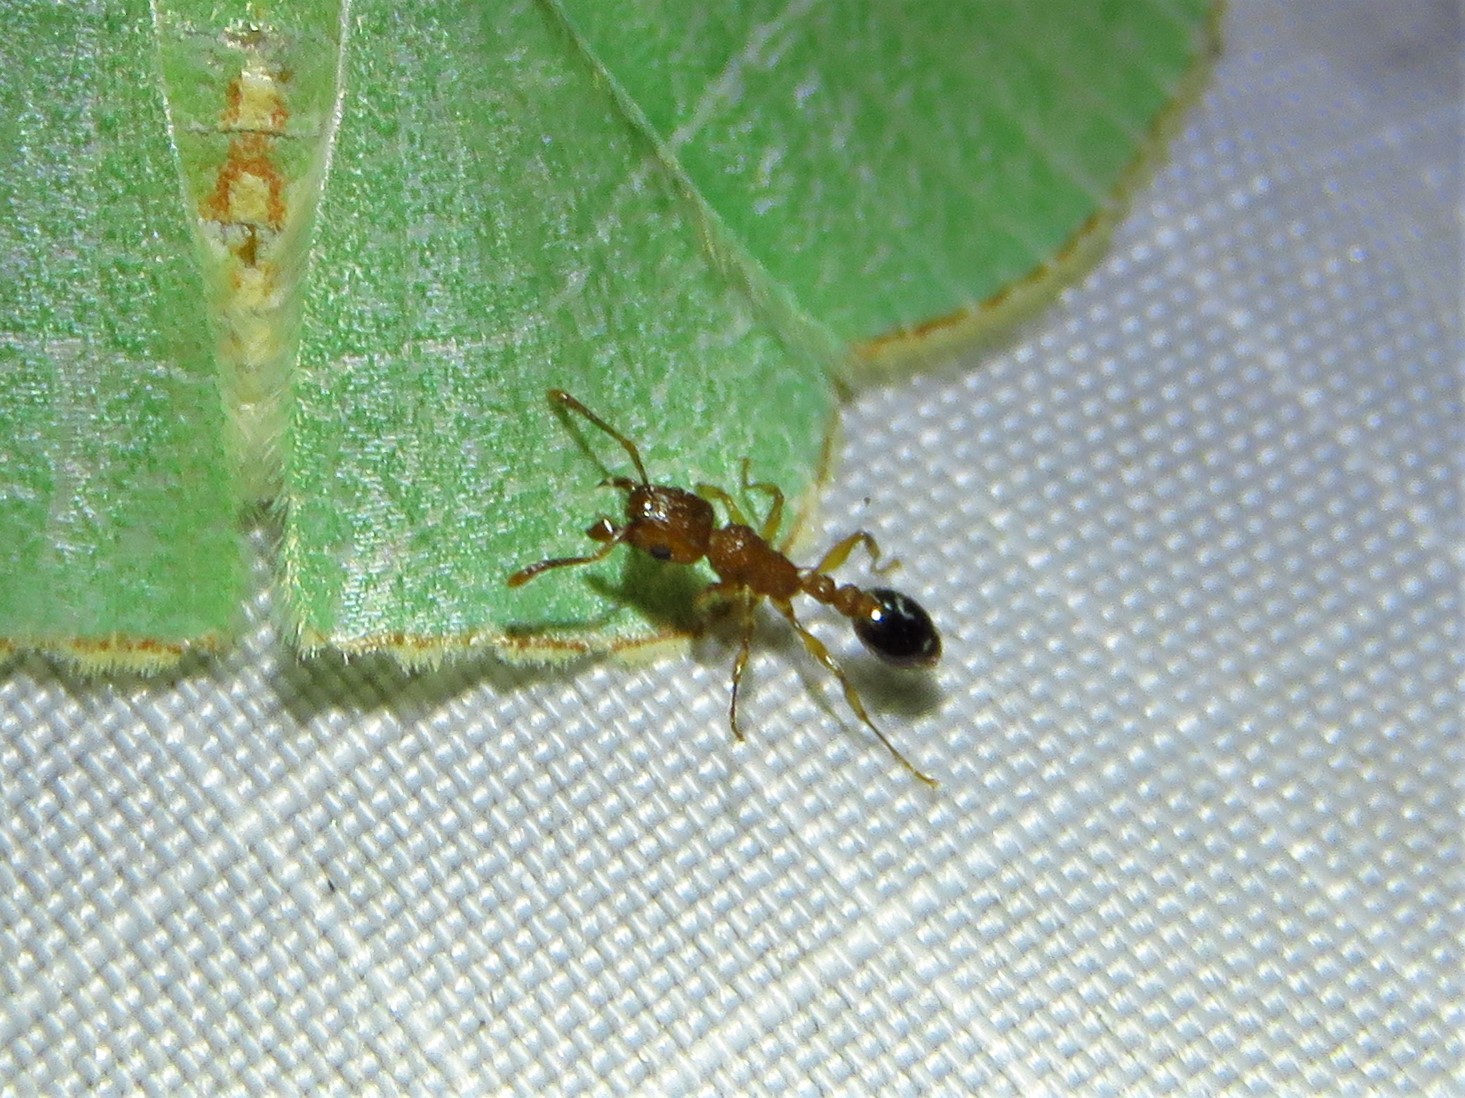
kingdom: Animalia
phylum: Arthropoda
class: Insecta
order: Hymenoptera
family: Formicidae
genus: Tetramorium
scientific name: Tetramorium bicarinatum
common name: Guinea ant
